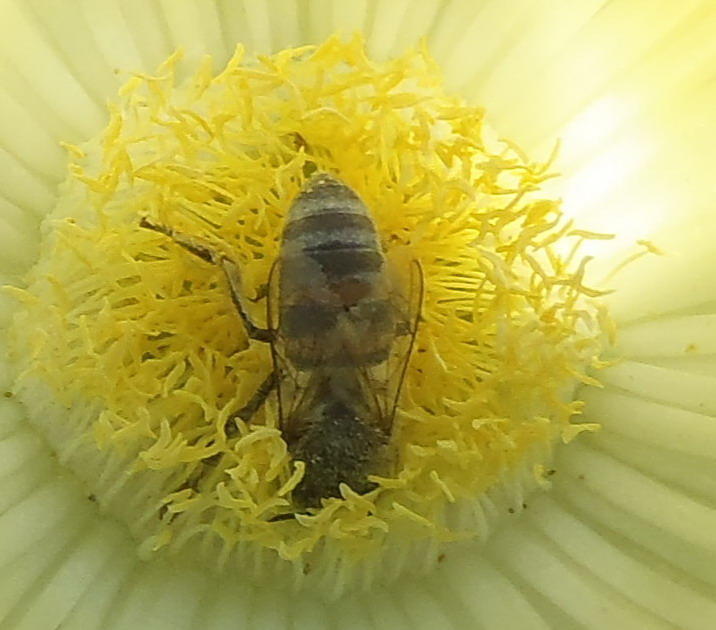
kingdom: Animalia
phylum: Arthropoda
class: Insecta
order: Hymenoptera
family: Apidae
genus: Apis
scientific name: Apis mellifera
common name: Honey bee
